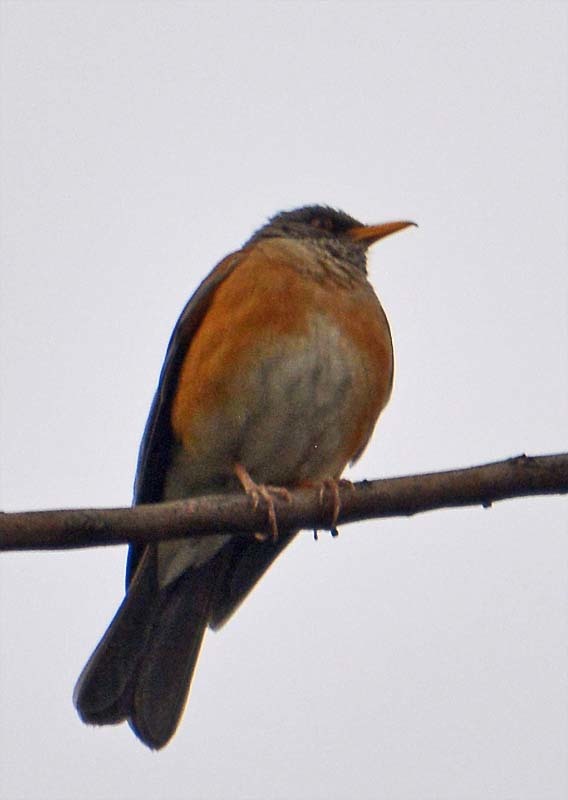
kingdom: Animalia
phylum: Chordata
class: Aves
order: Passeriformes
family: Turdidae
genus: Turdus
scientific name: Turdus rufopalliatus
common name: Rufous-backed robin
